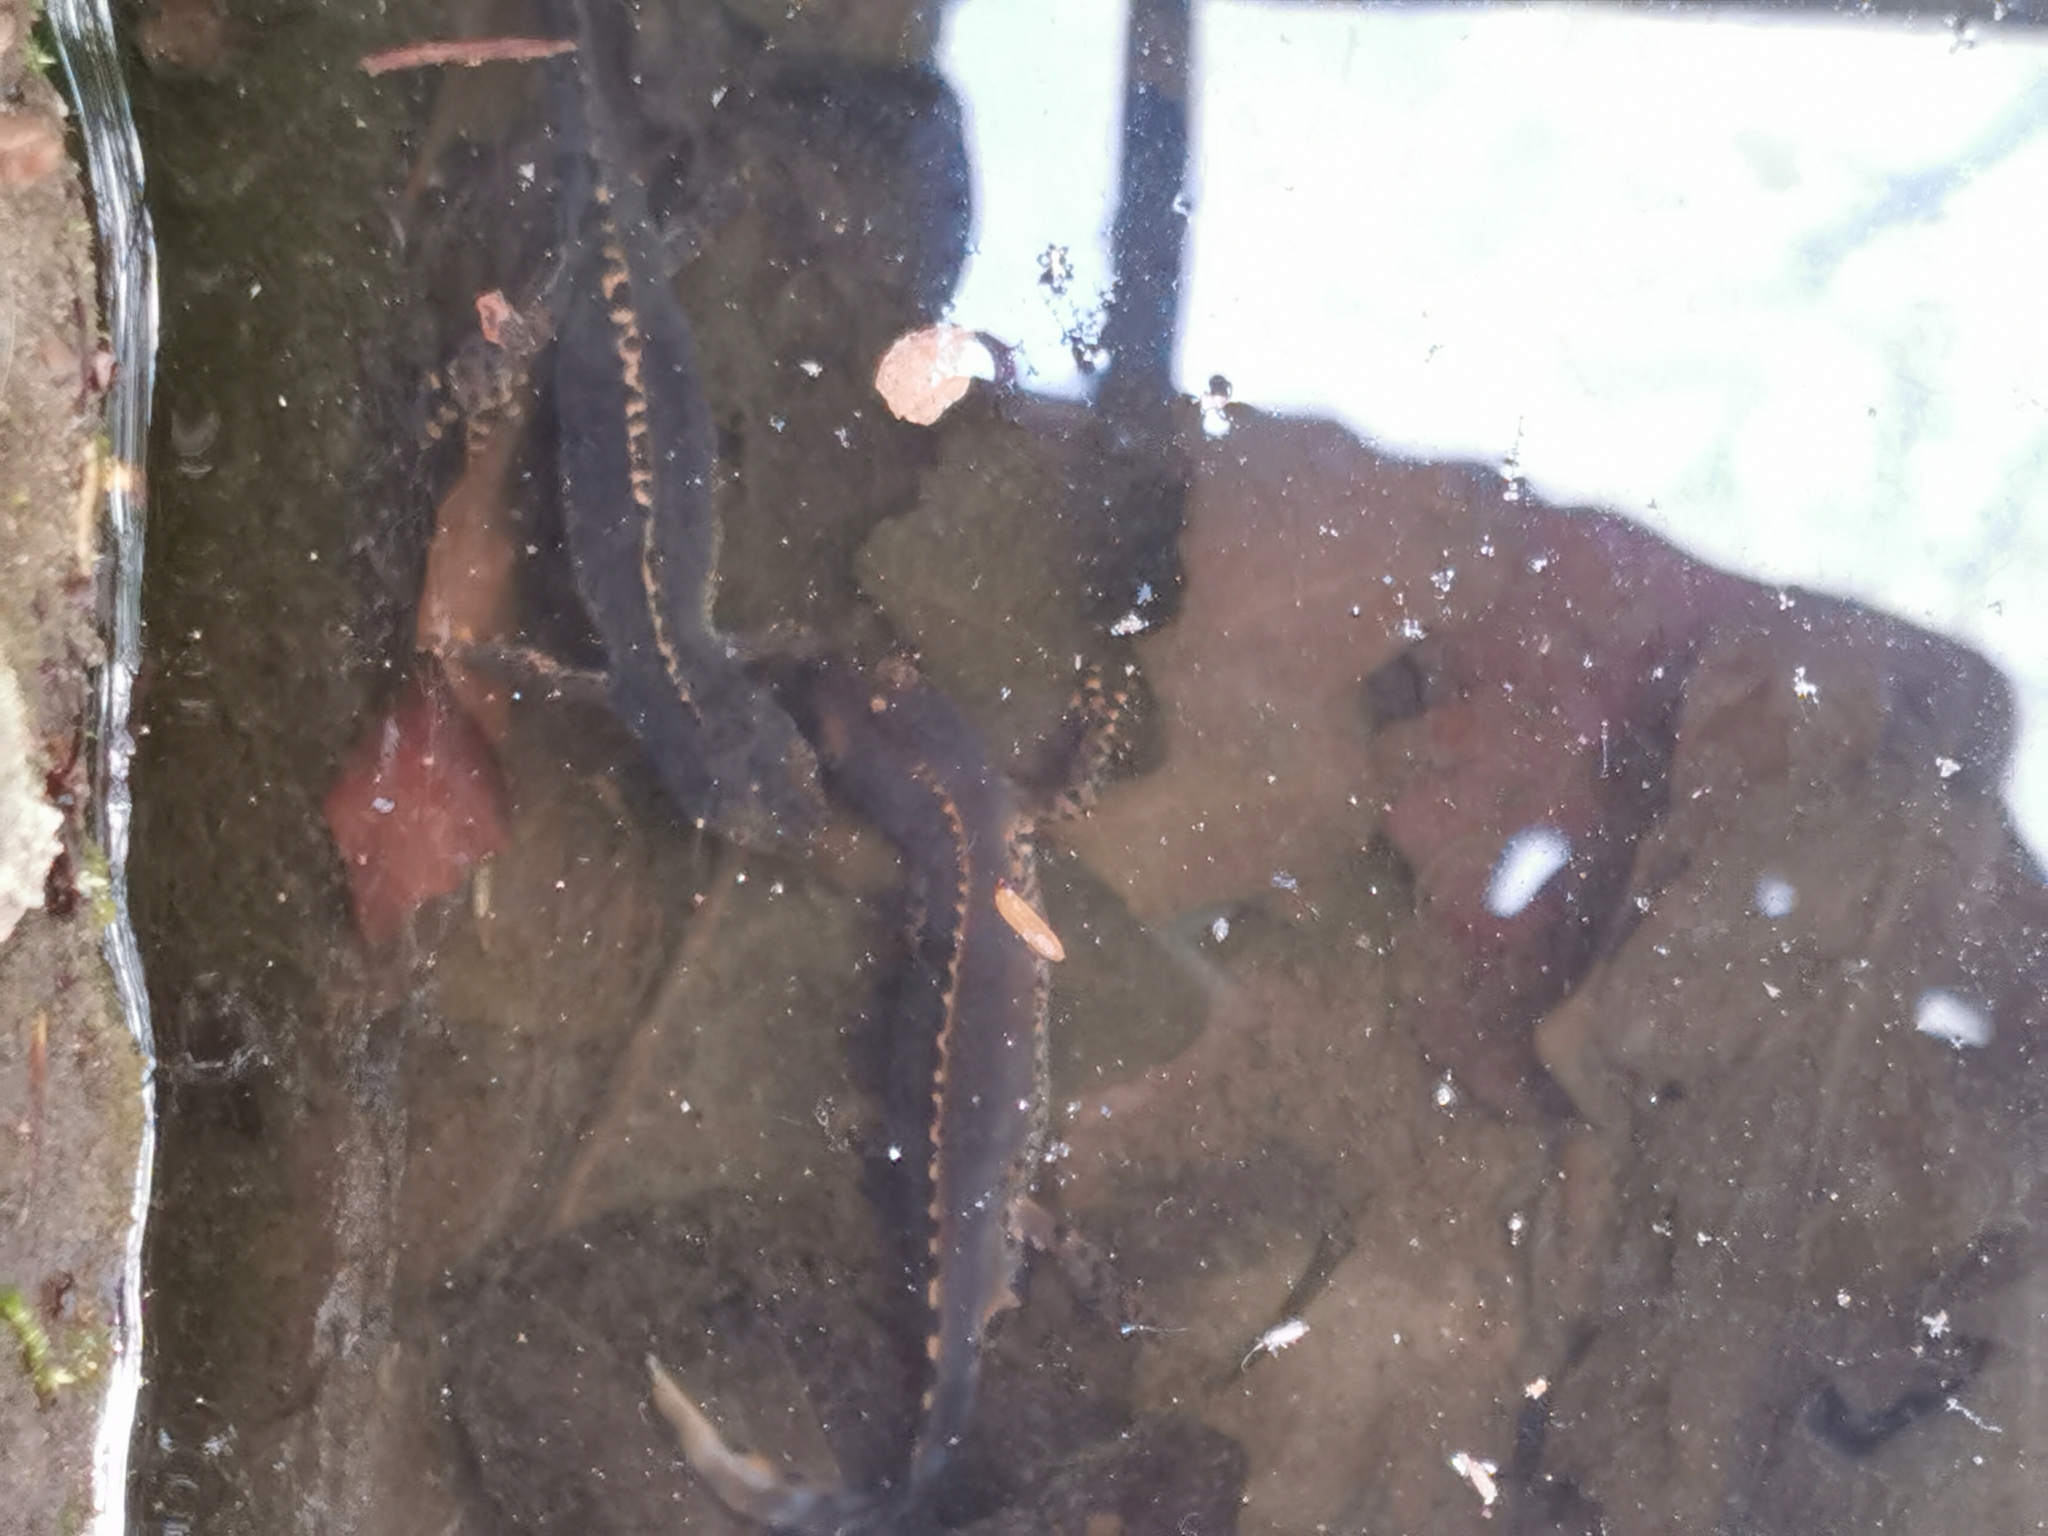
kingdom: Animalia
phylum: Chordata
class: Amphibia
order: Caudata
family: Salamandridae
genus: Ichthyosaura
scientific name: Ichthyosaura alpestris
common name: Alpine newt
